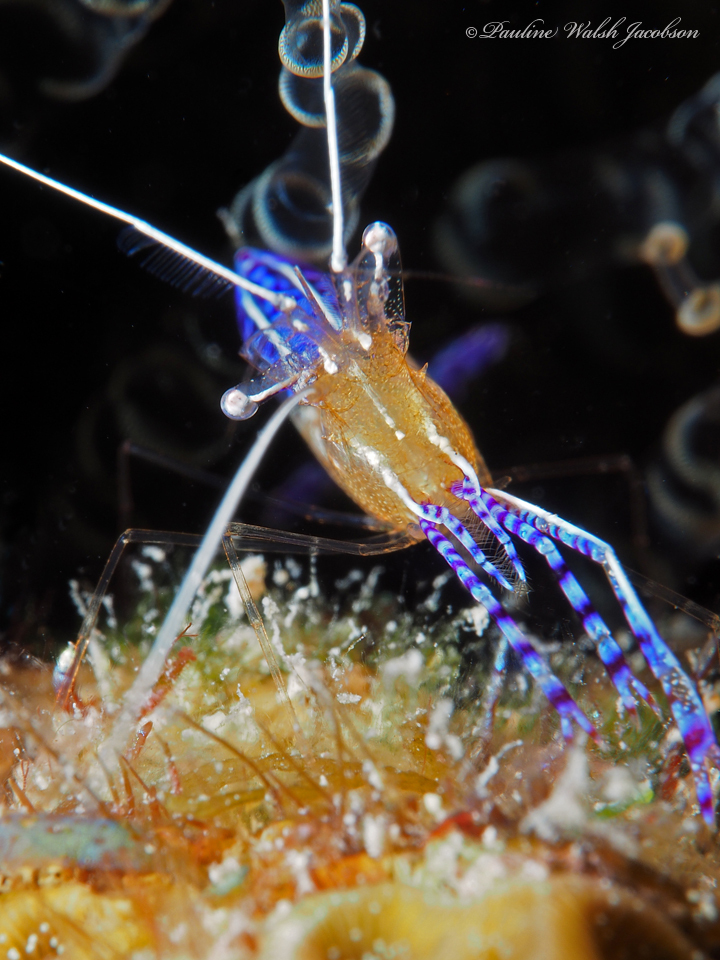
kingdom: Animalia
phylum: Arthropoda
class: Malacostraca
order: Decapoda
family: Palaemonidae
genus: Ancylomenes
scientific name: Ancylomenes pedersoni
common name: Pederson's cleaning shrimp
